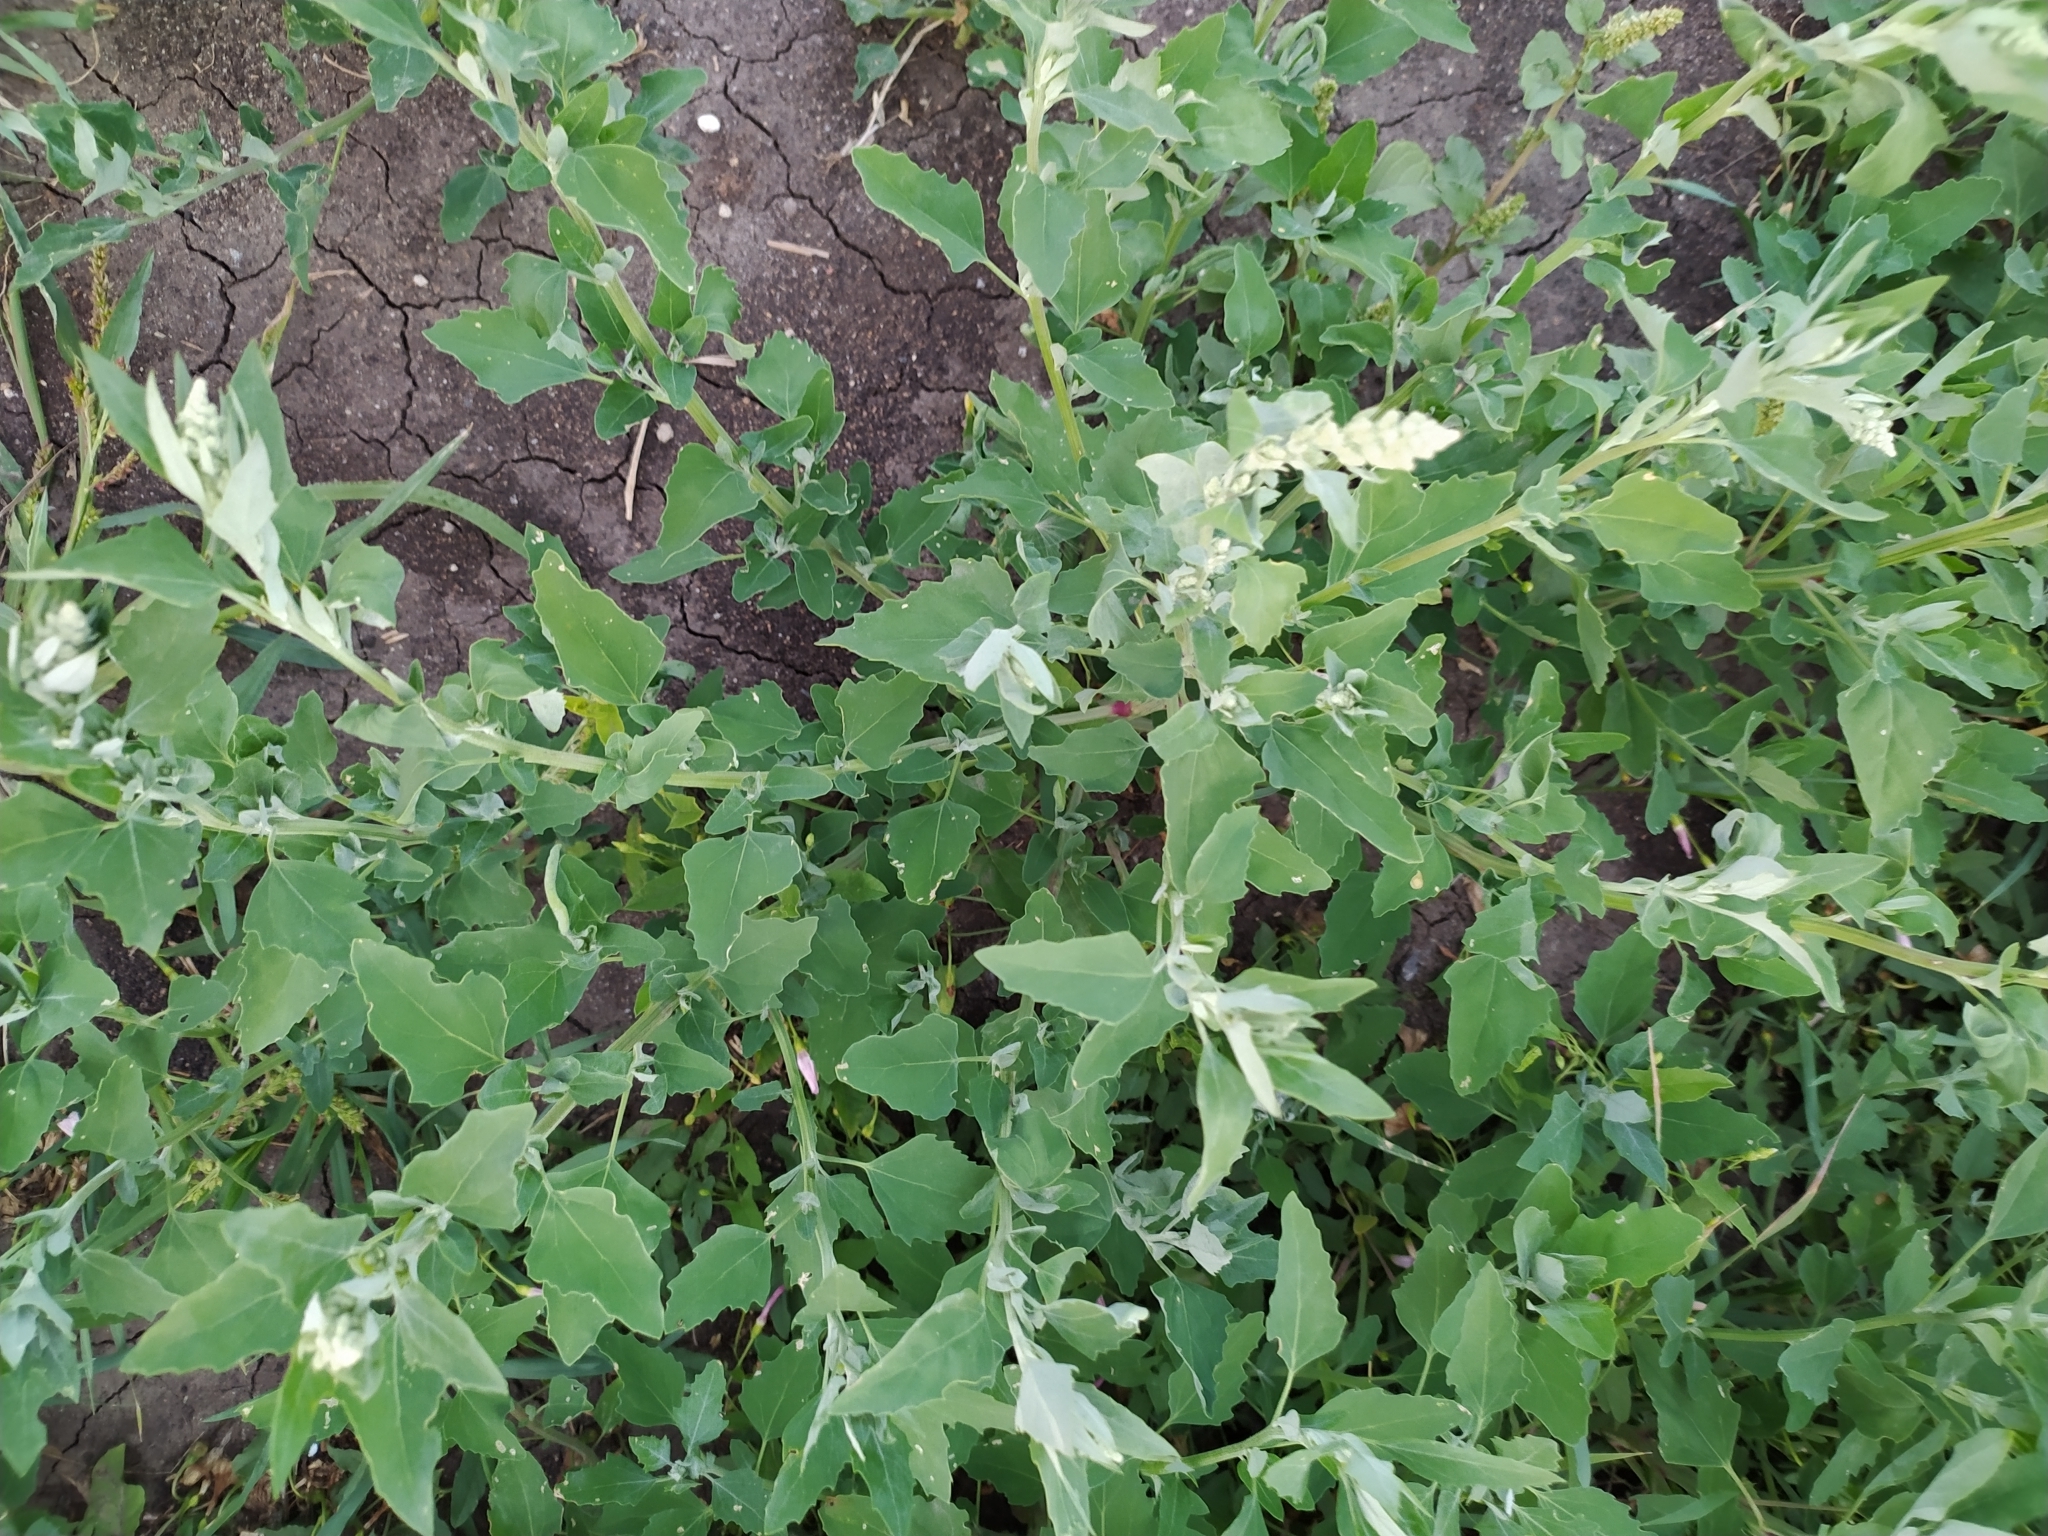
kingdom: Plantae
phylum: Tracheophyta
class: Magnoliopsida
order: Caryophyllales
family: Amaranthaceae
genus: Chenopodium
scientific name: Chenopodium album
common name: Fat-hen
